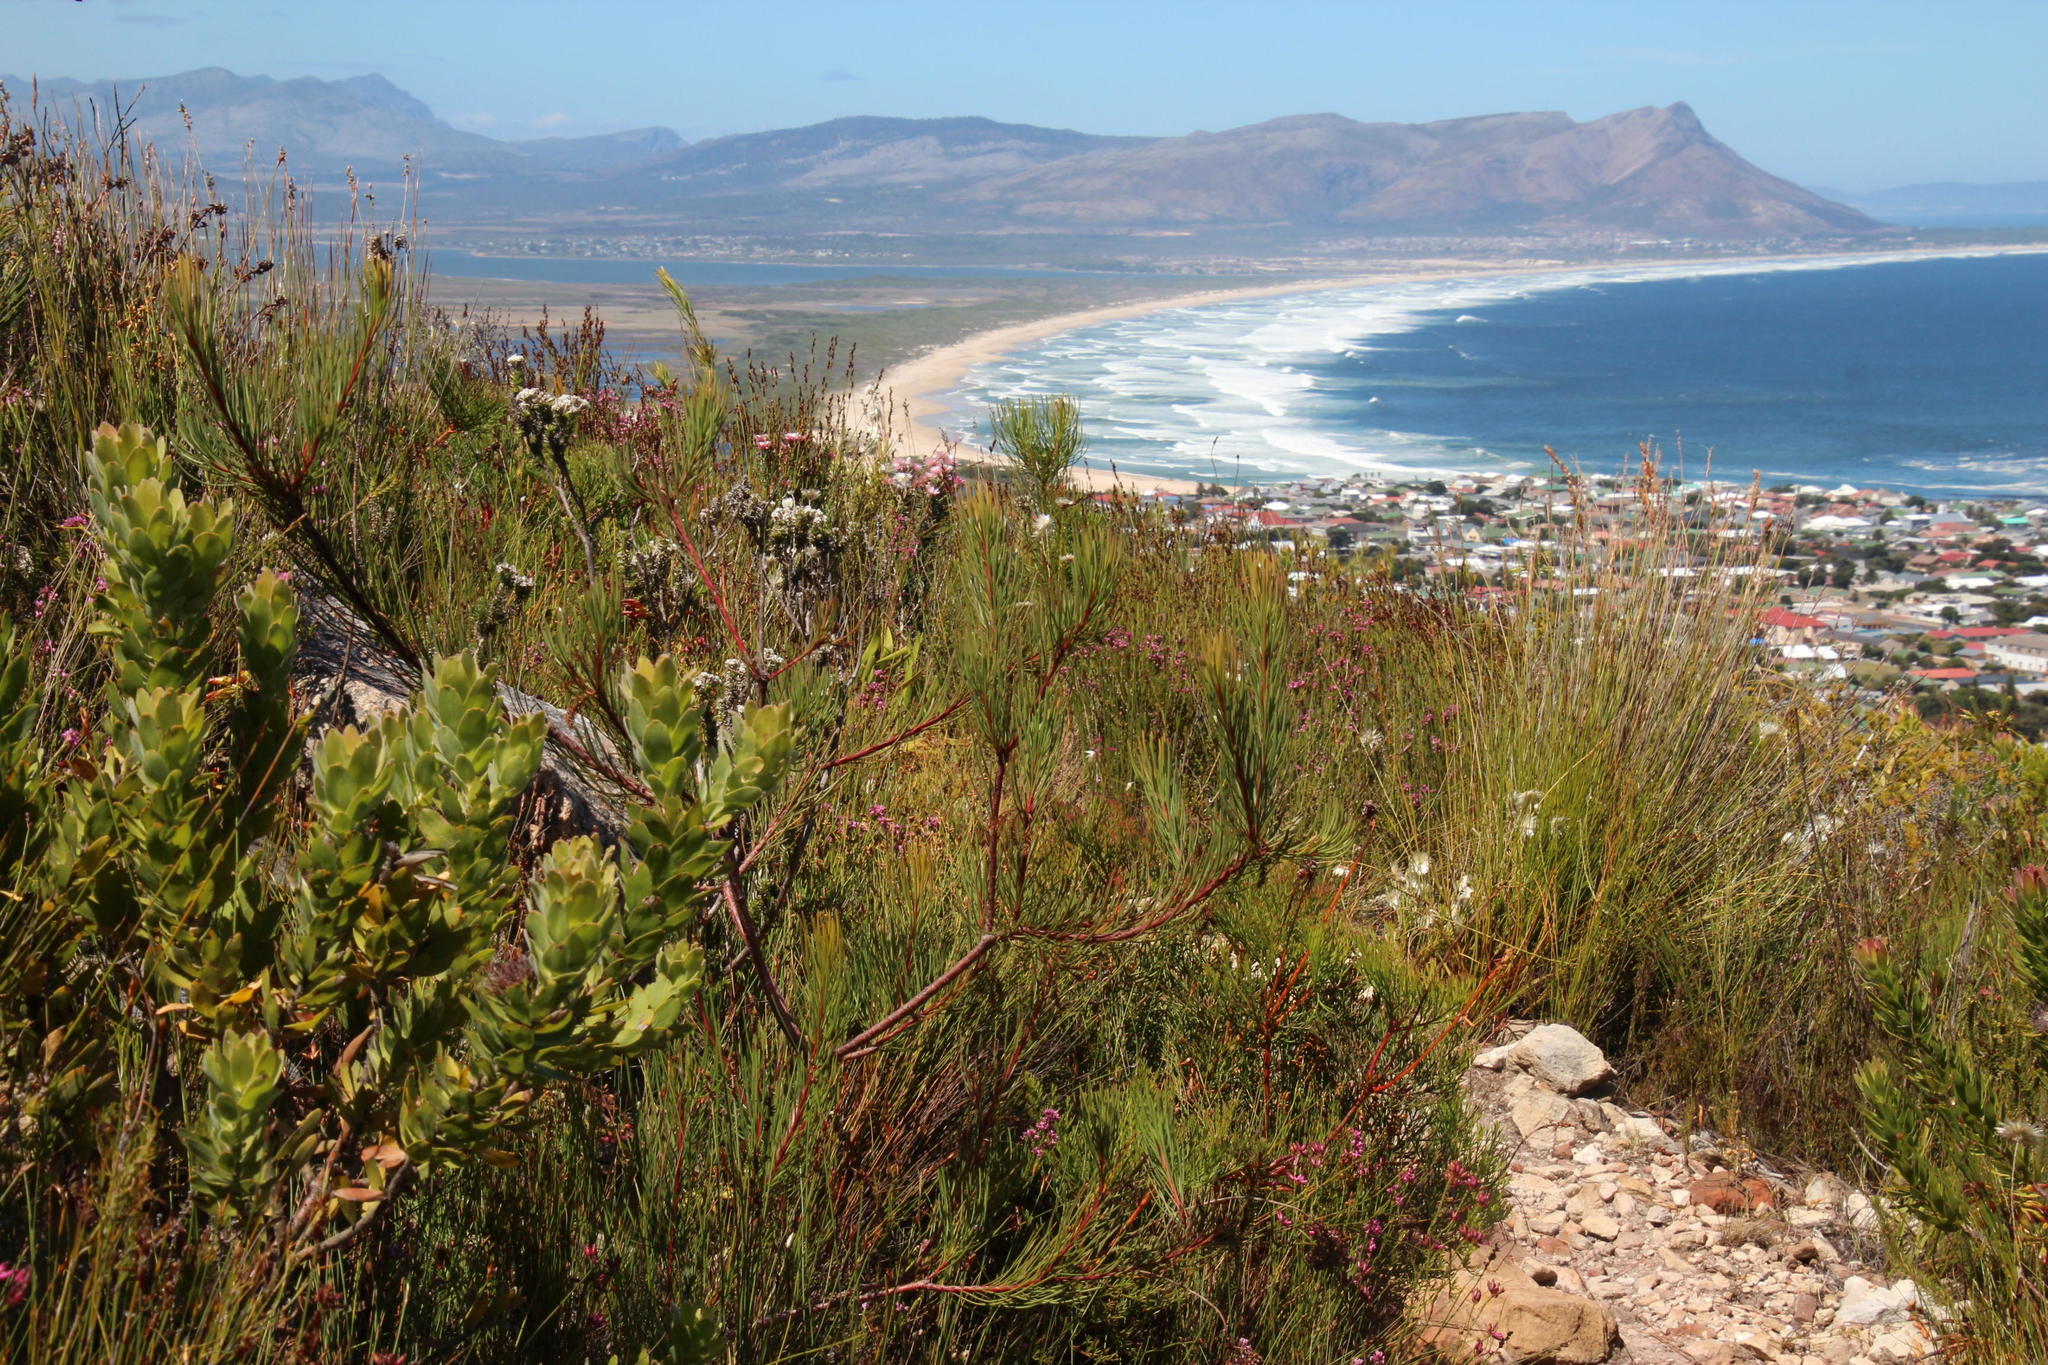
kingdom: Plantae
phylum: Tracheophyta
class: Magnoliopsida
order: Proteales
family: Proteaceae
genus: Aulax
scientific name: Aulax
